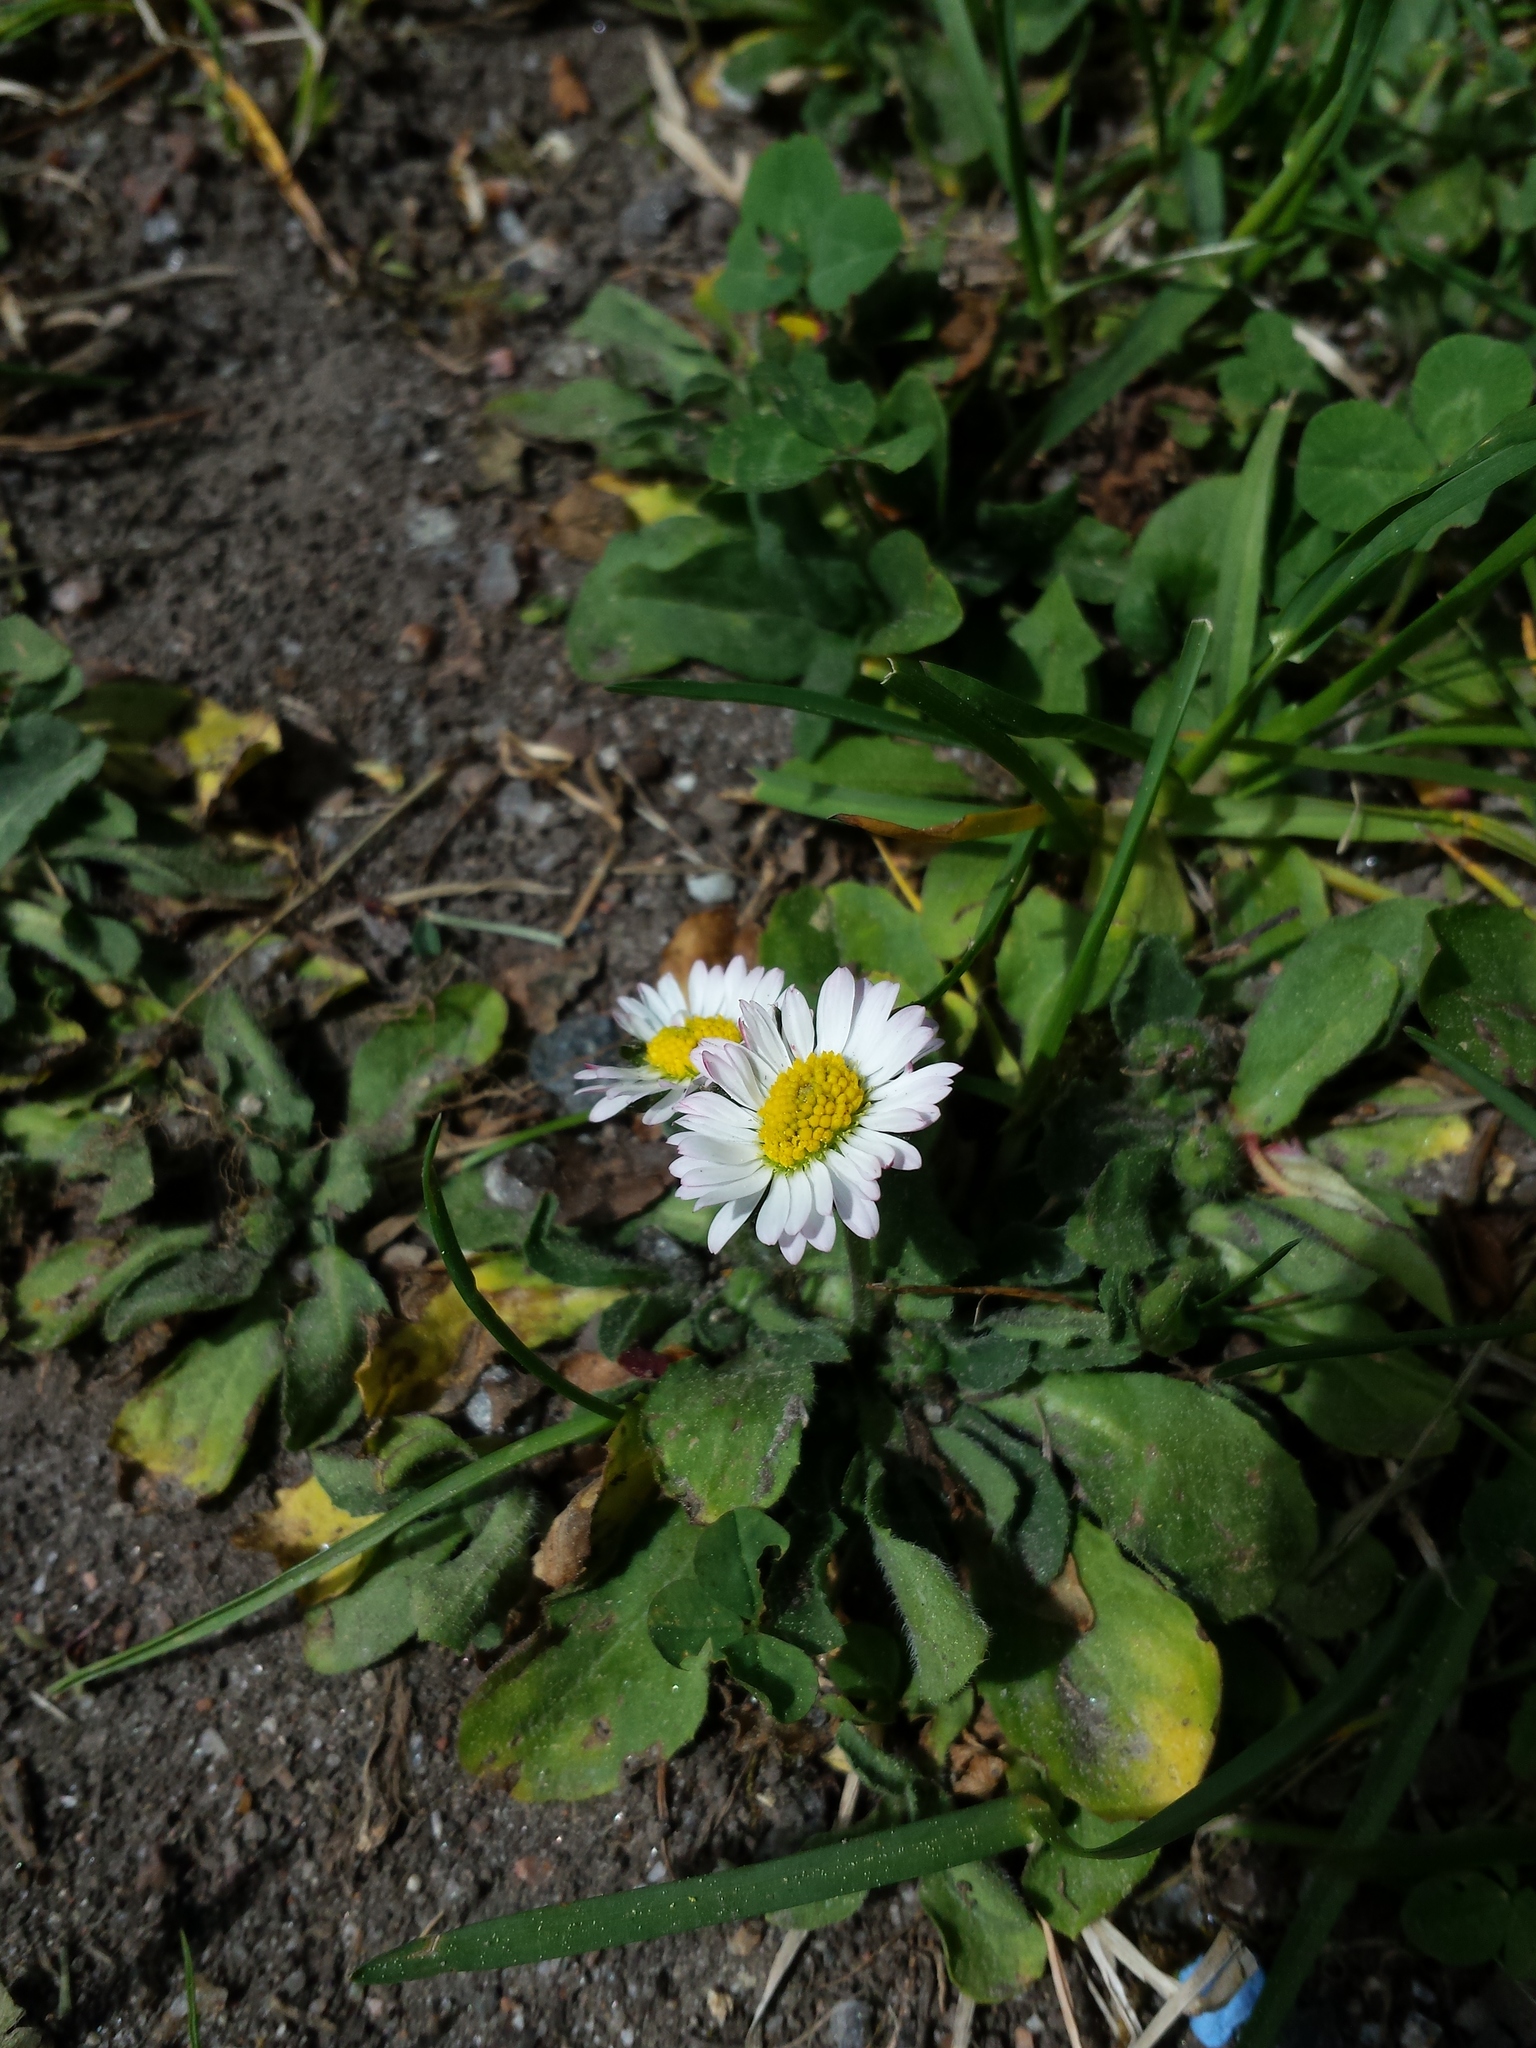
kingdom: Plantae
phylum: Tracheophyta
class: Magnoliopsida
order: Asterales
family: Asteraceae
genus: Bellis
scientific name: Bellis perennis
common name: Lawndaisy
